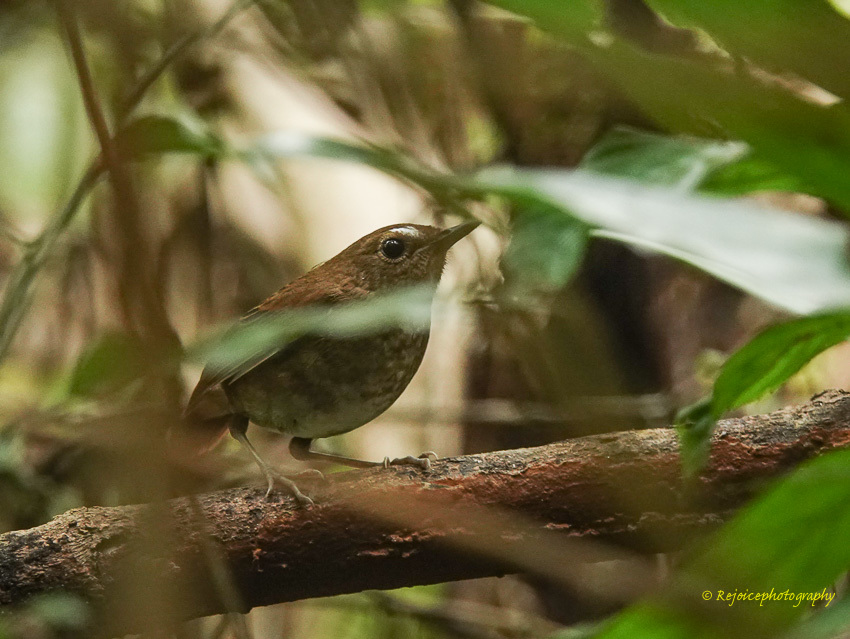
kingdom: Animalia
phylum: Chordata
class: Aves
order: Passeriformes
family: Muscicapidae
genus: Brachypteryx
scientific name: Brachypteryx leucophris
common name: Lesser shortwing
